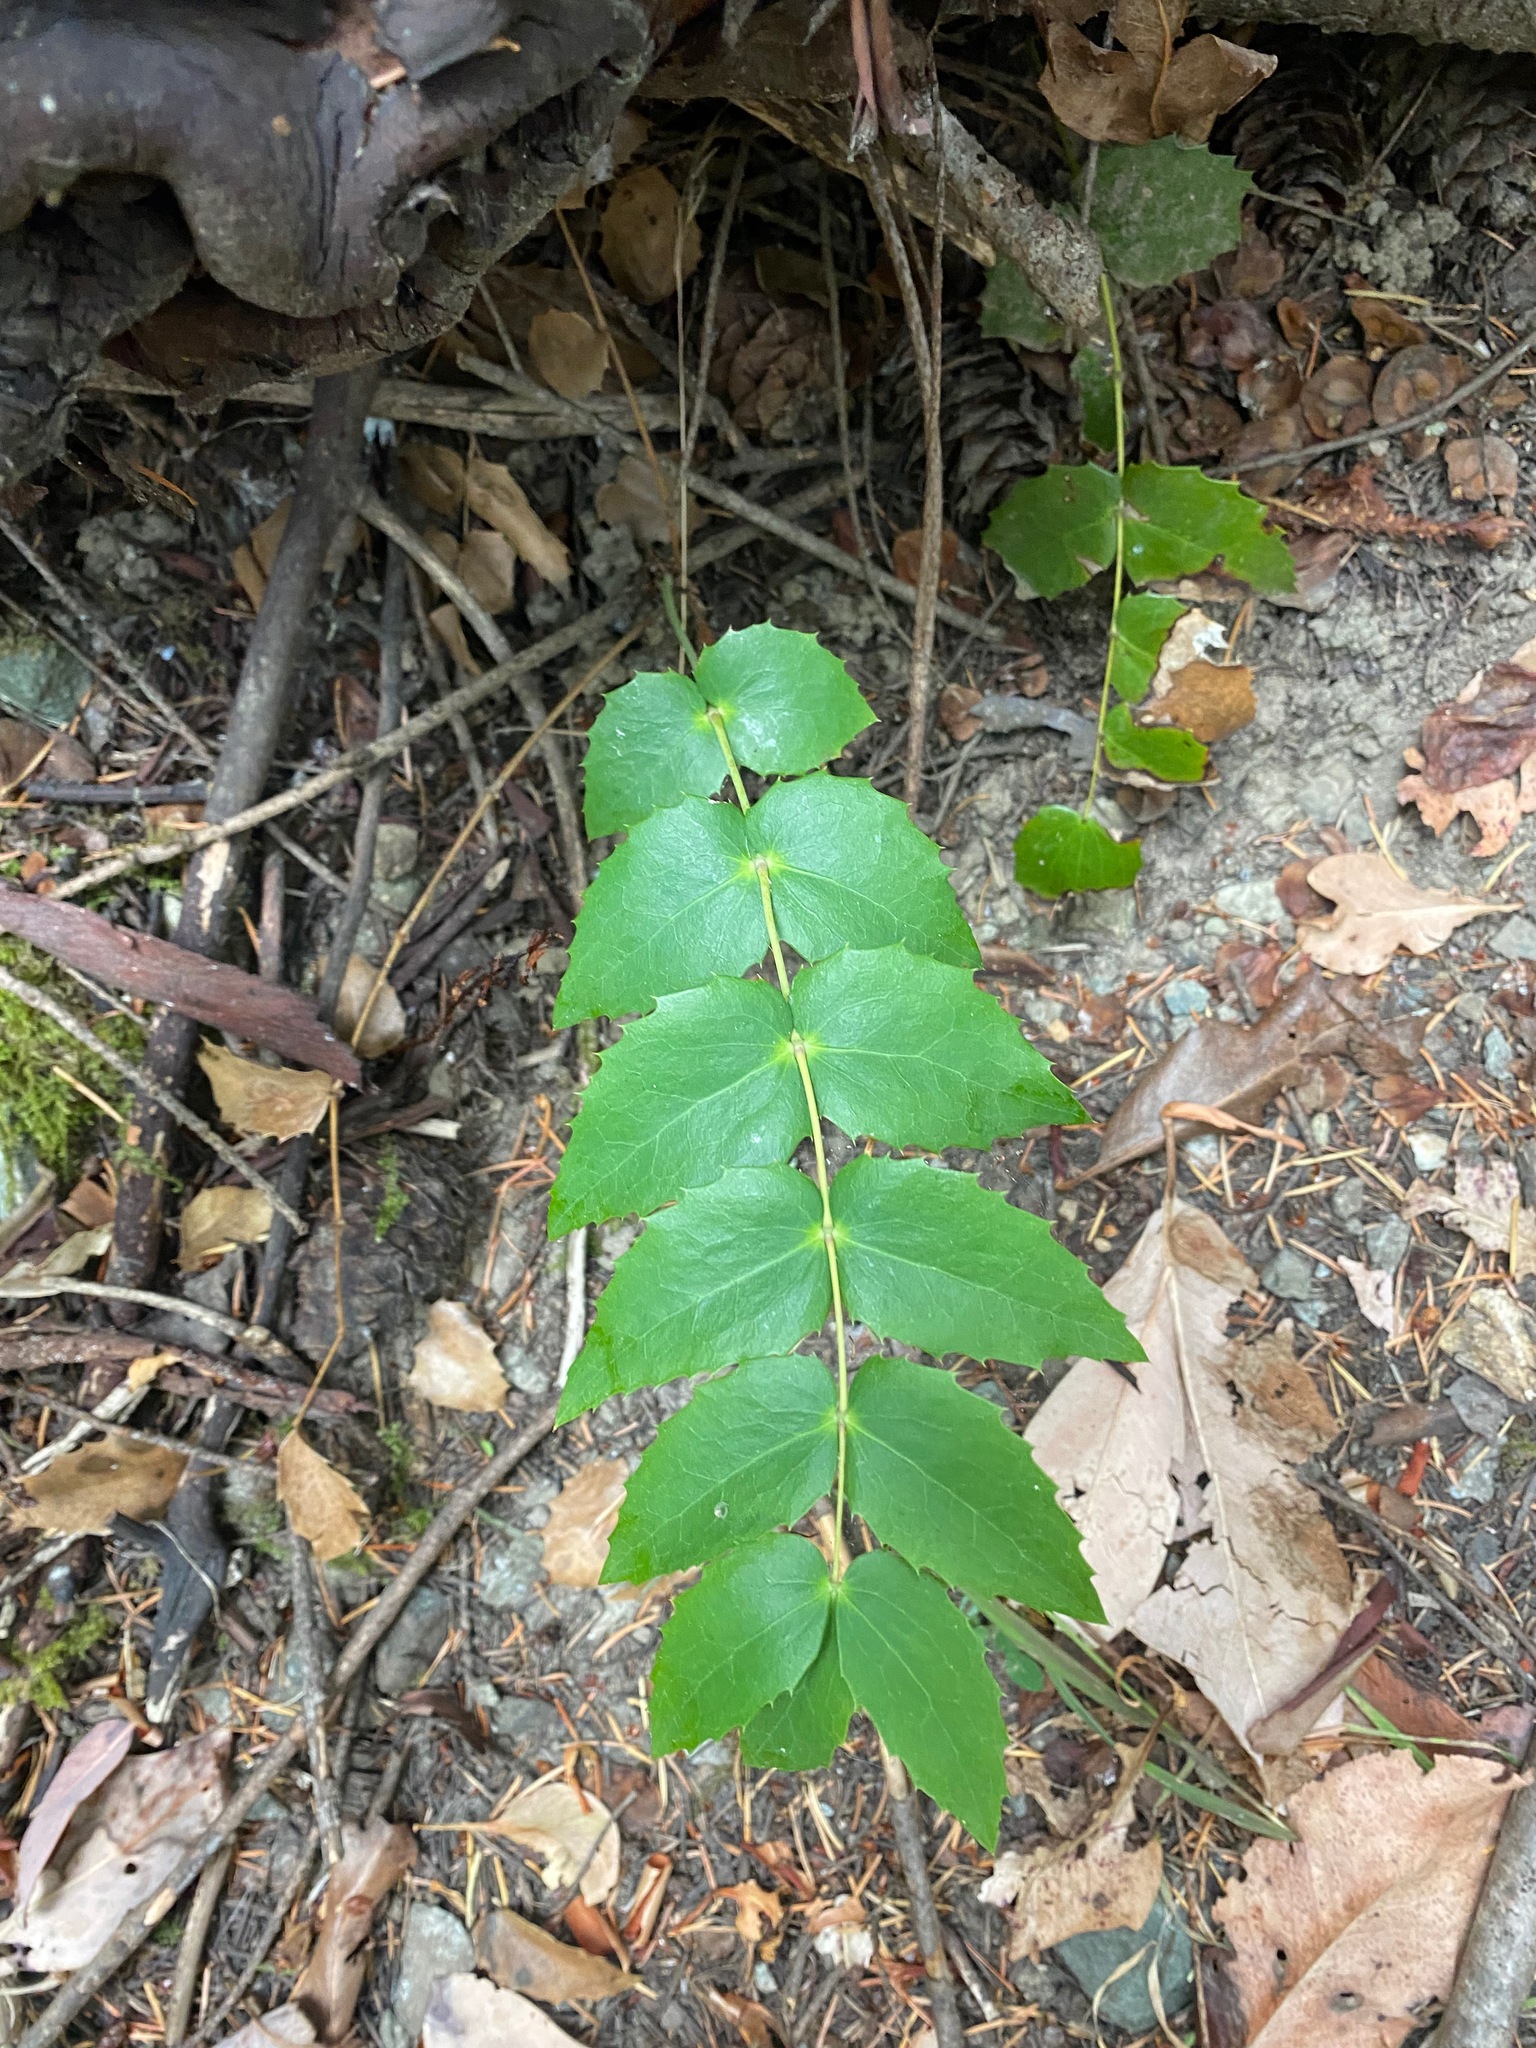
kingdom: Plantae
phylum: Tracheophyta
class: Magnoliopsida
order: Ranunculales
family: Berberidaceae
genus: Mahonia
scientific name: Mahonia nervosa
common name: Cascade oregon-grape
